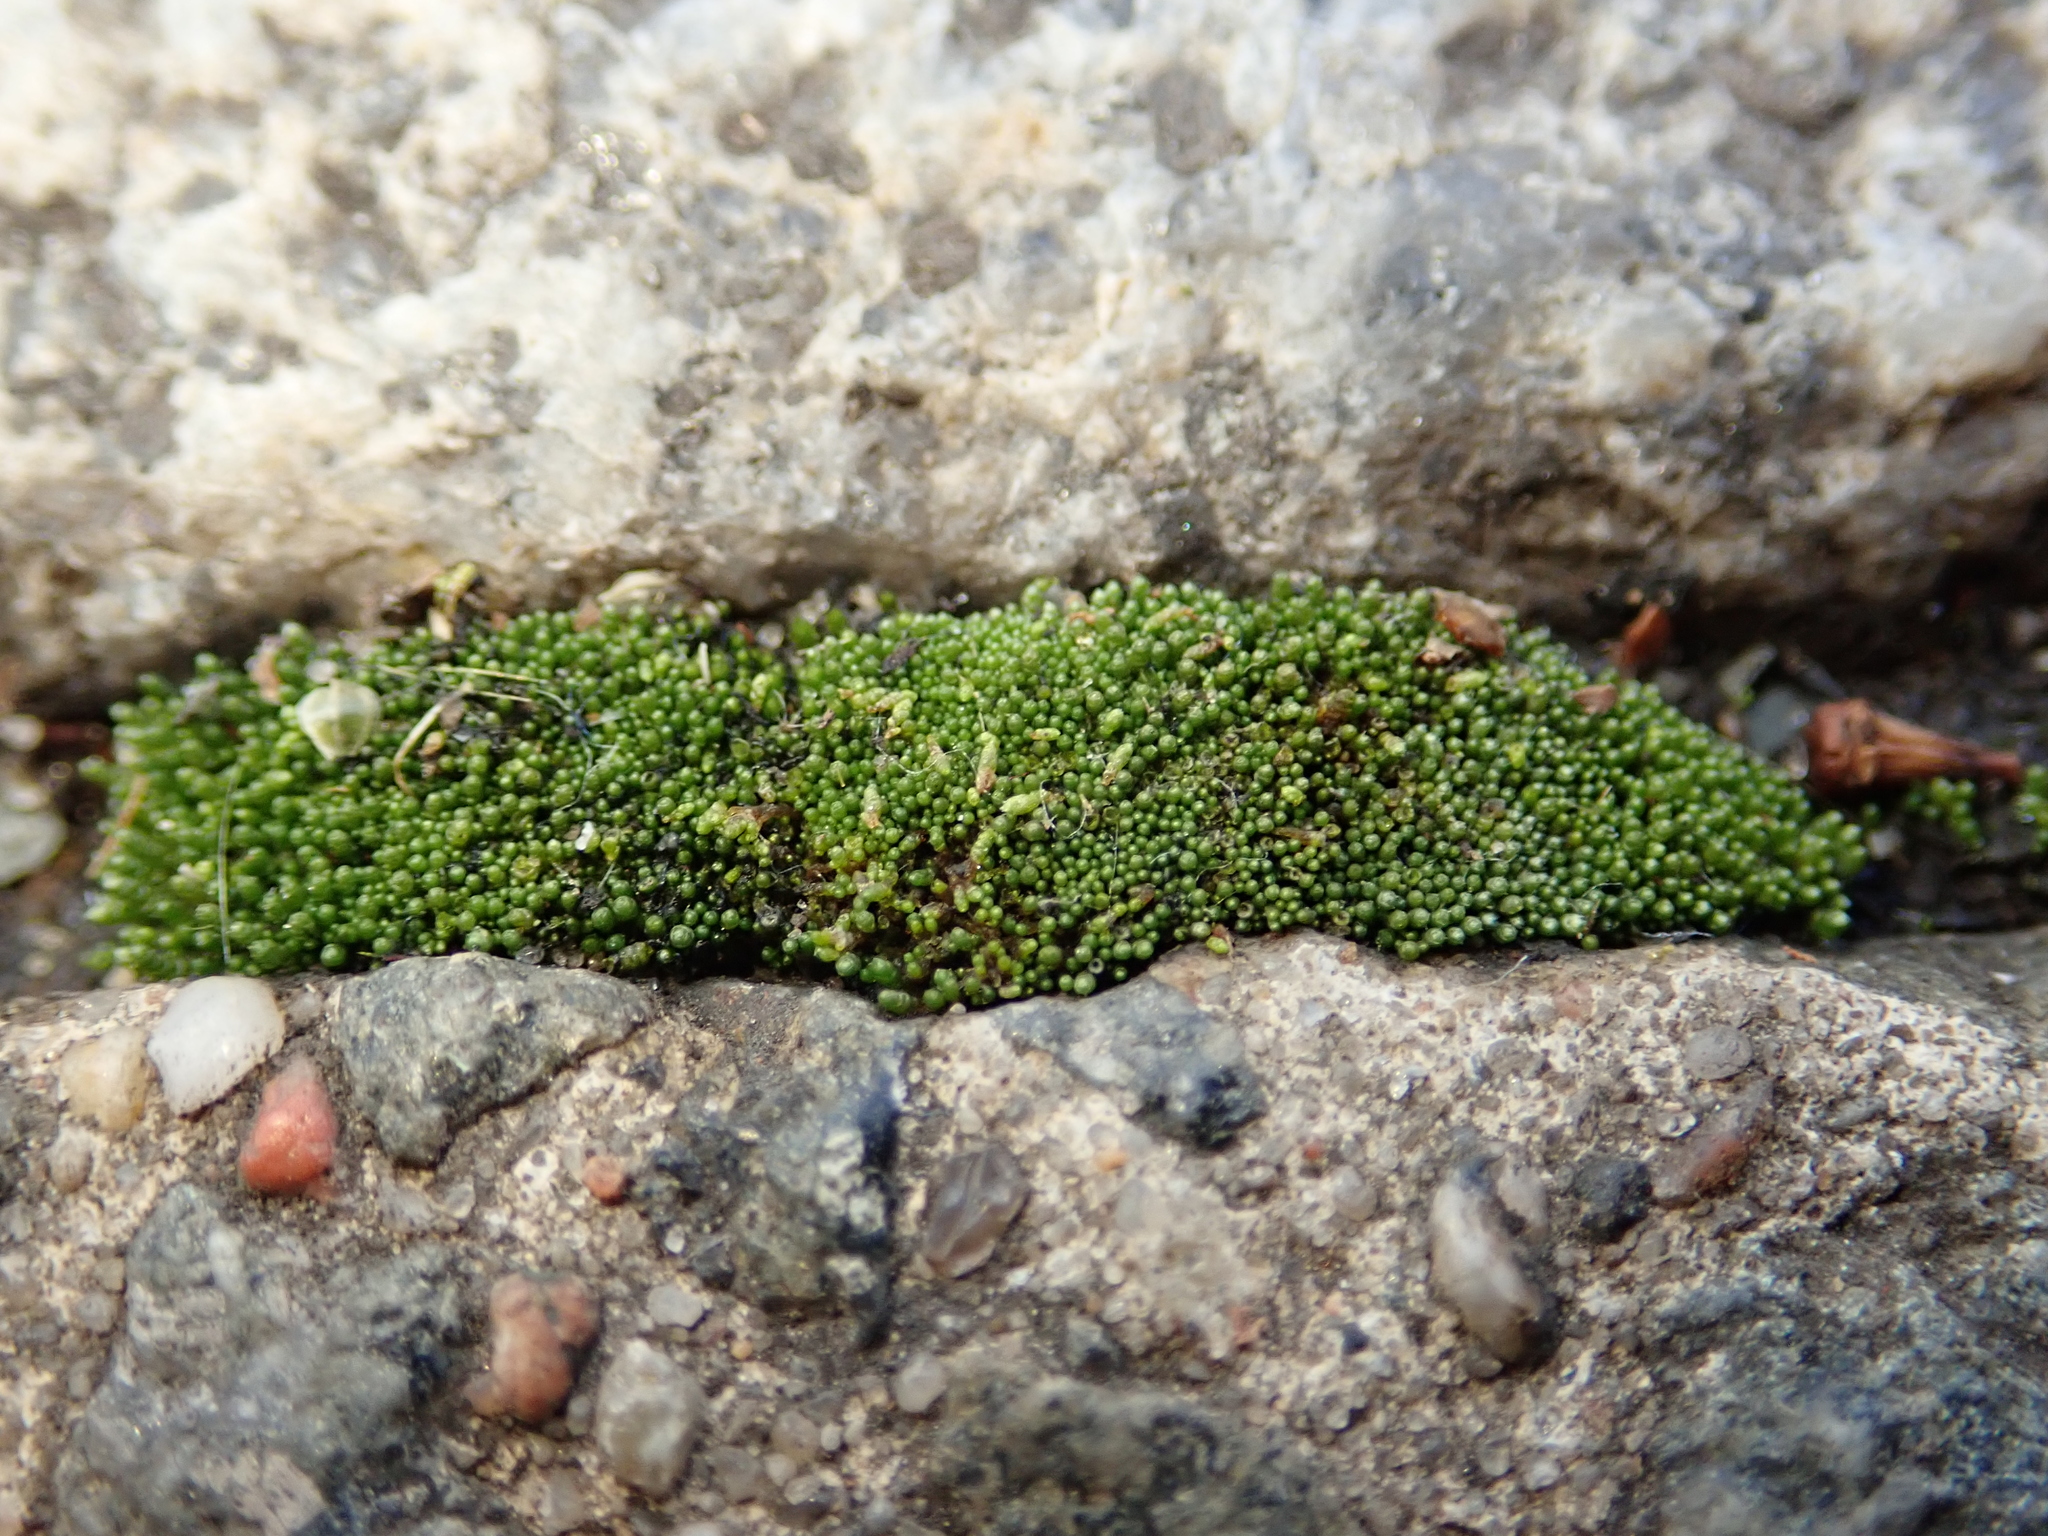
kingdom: Plantae
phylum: Bryophyta
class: Bryopsida
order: Bryales
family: Bryaceae
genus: Bryum
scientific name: Bryum argenteum
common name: Silver-moss
